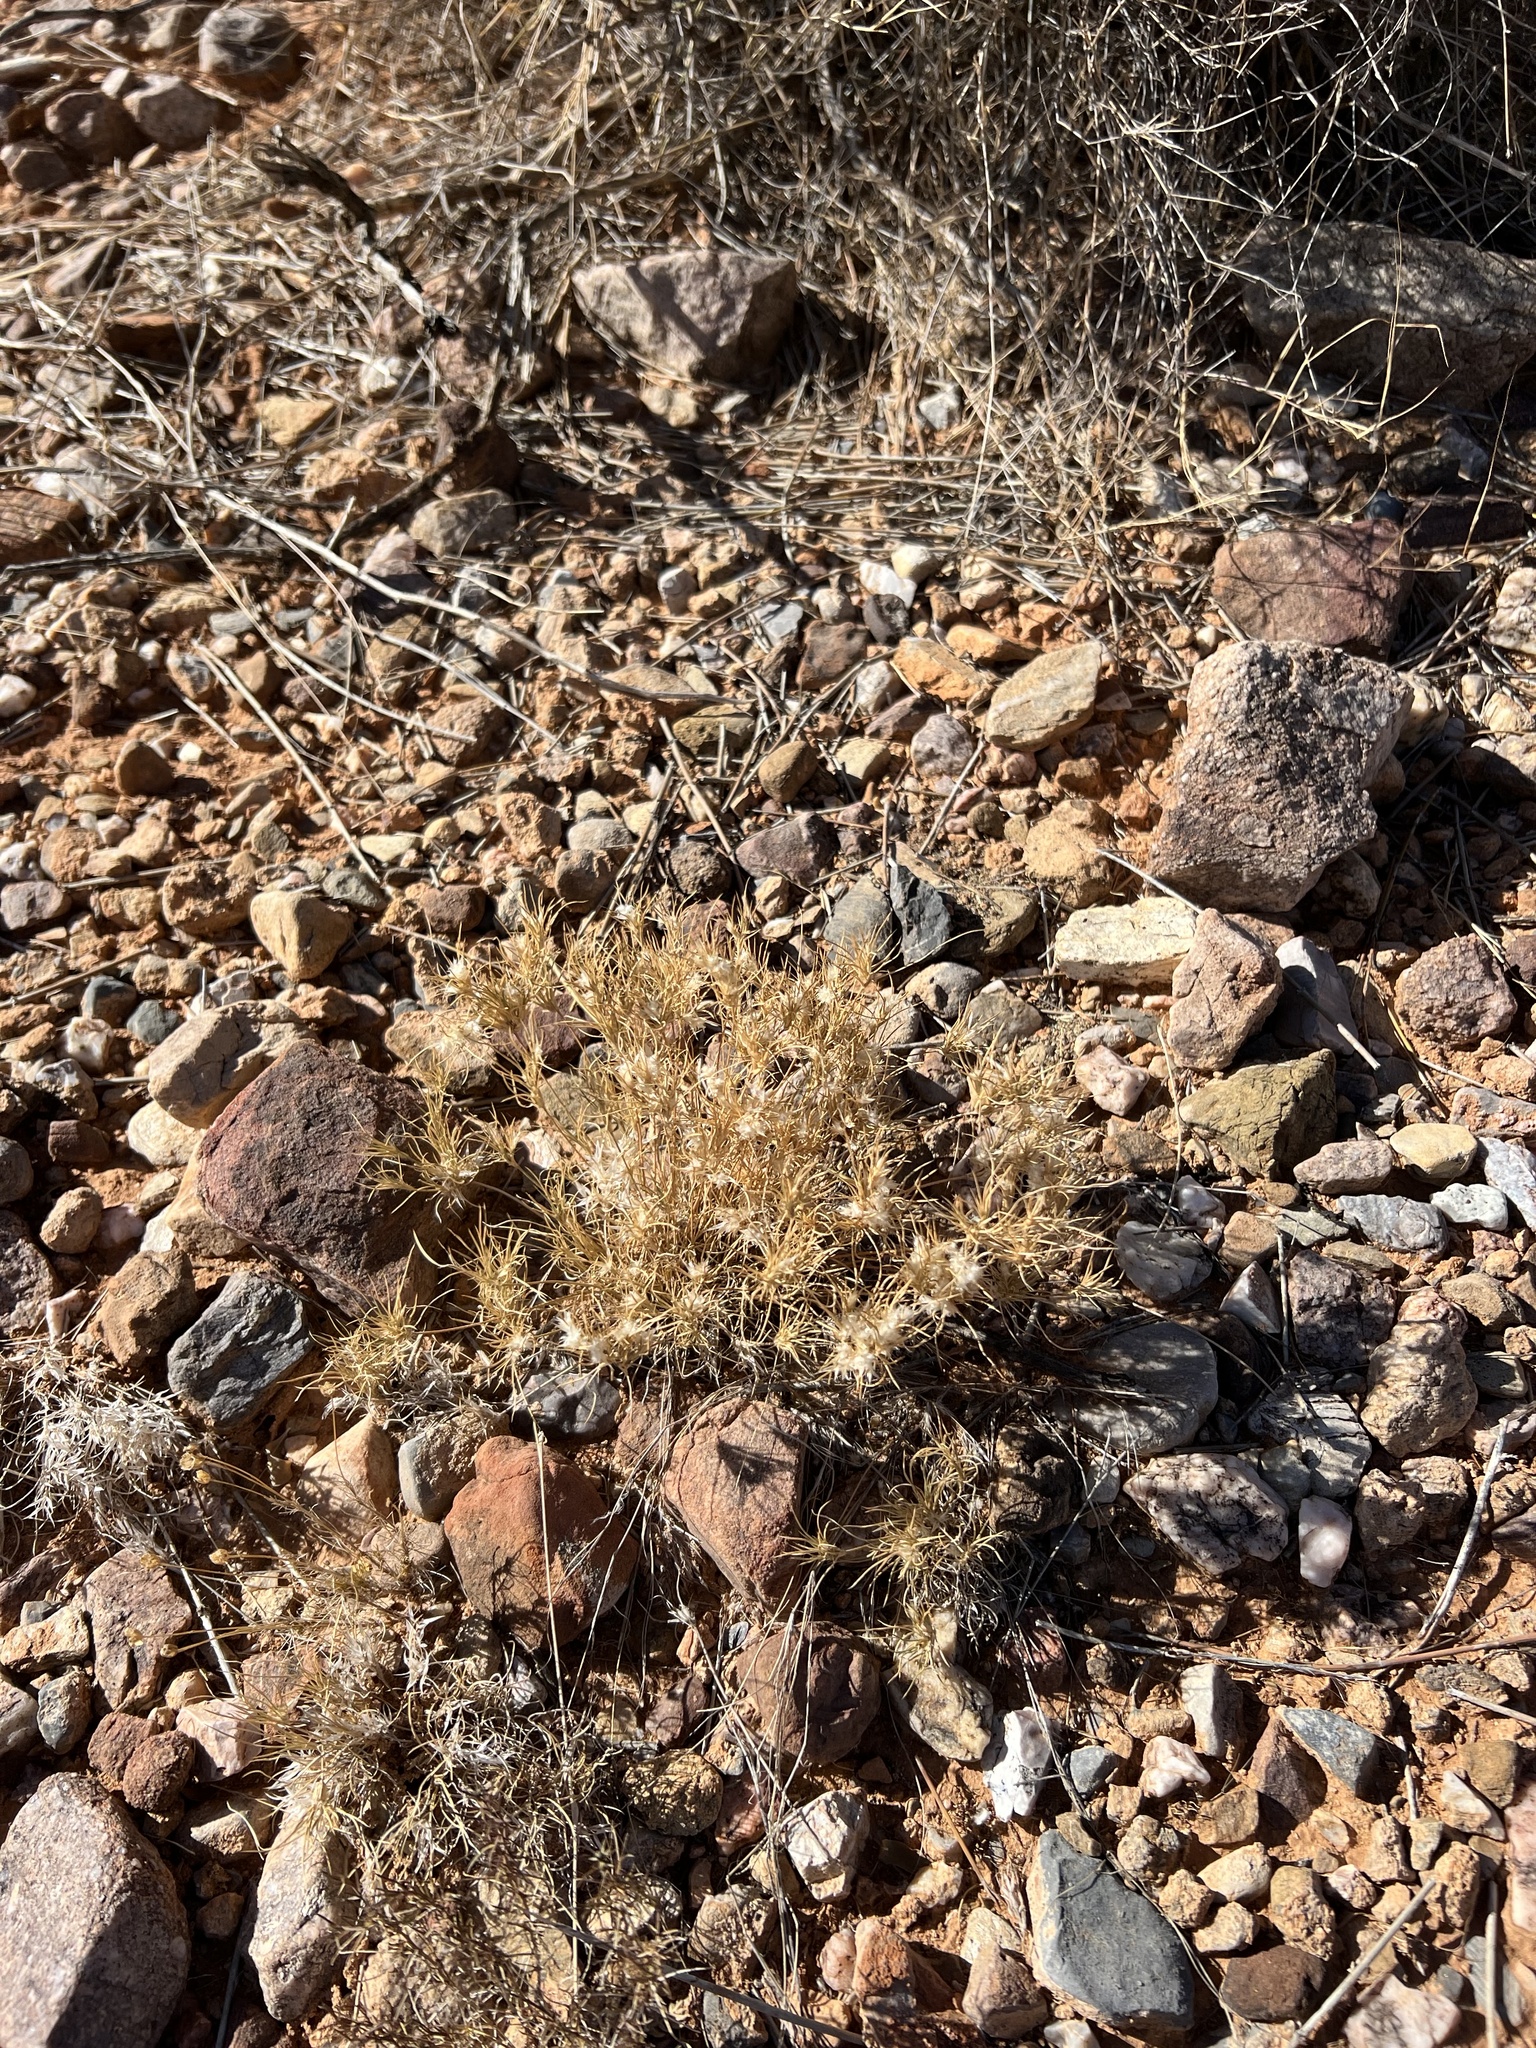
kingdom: Plantae
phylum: Tracheophyta
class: Liliopsida
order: Poales
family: Poaceae
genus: Dasyochloa
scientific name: Dasyochloa pulchella
